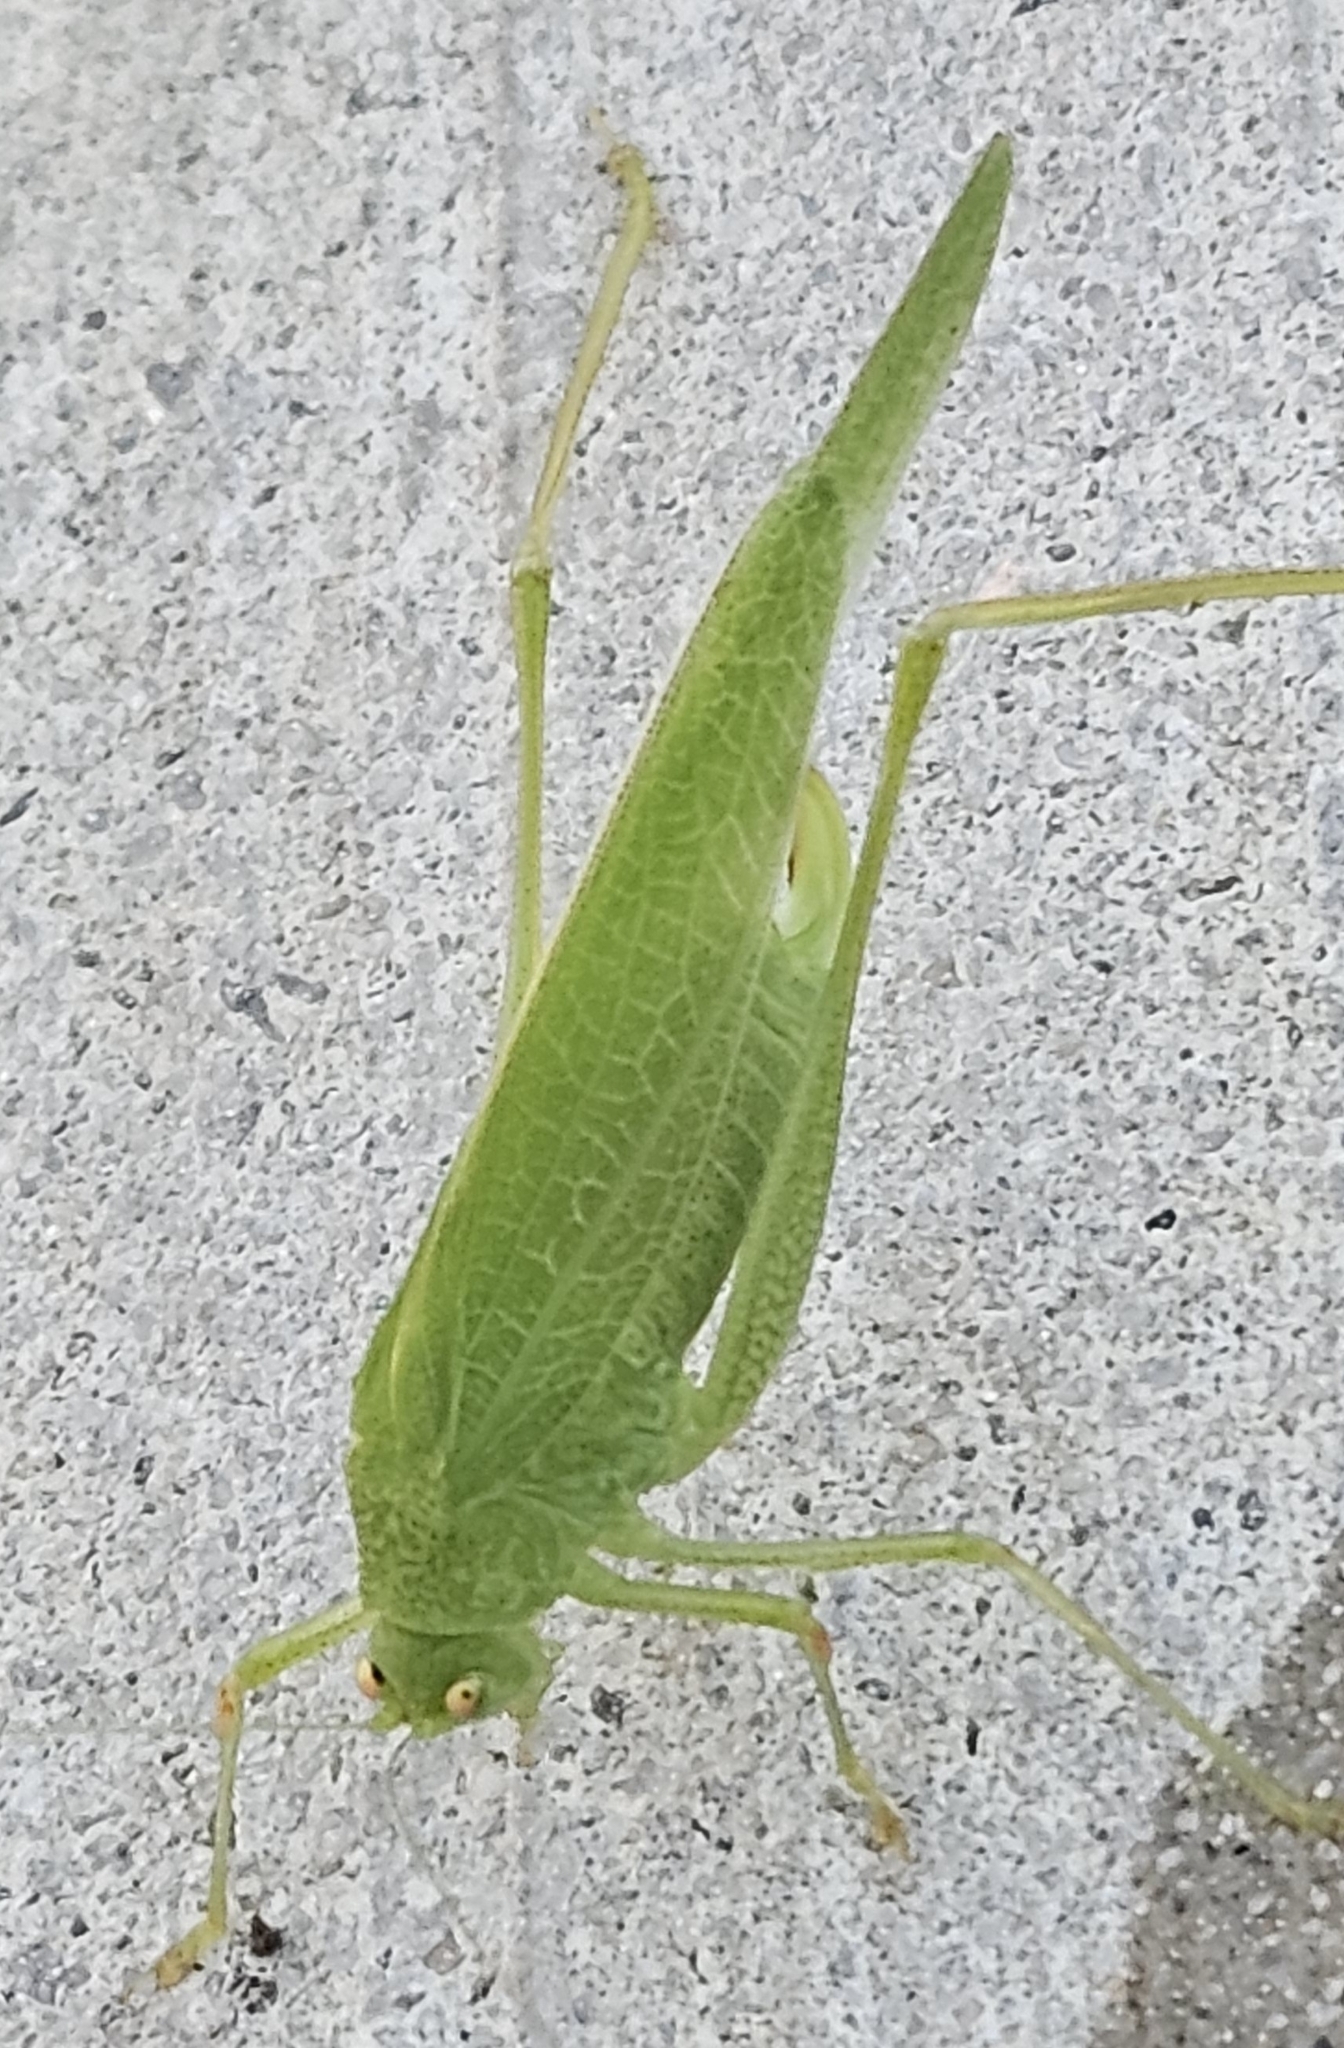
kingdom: Animalia
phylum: Arthropoda
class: Insecta
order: Orthoptera
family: Tettigoniidae
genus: Phaneroptera
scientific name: Phaneroptera nana
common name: Southern sickle bush-cricket
